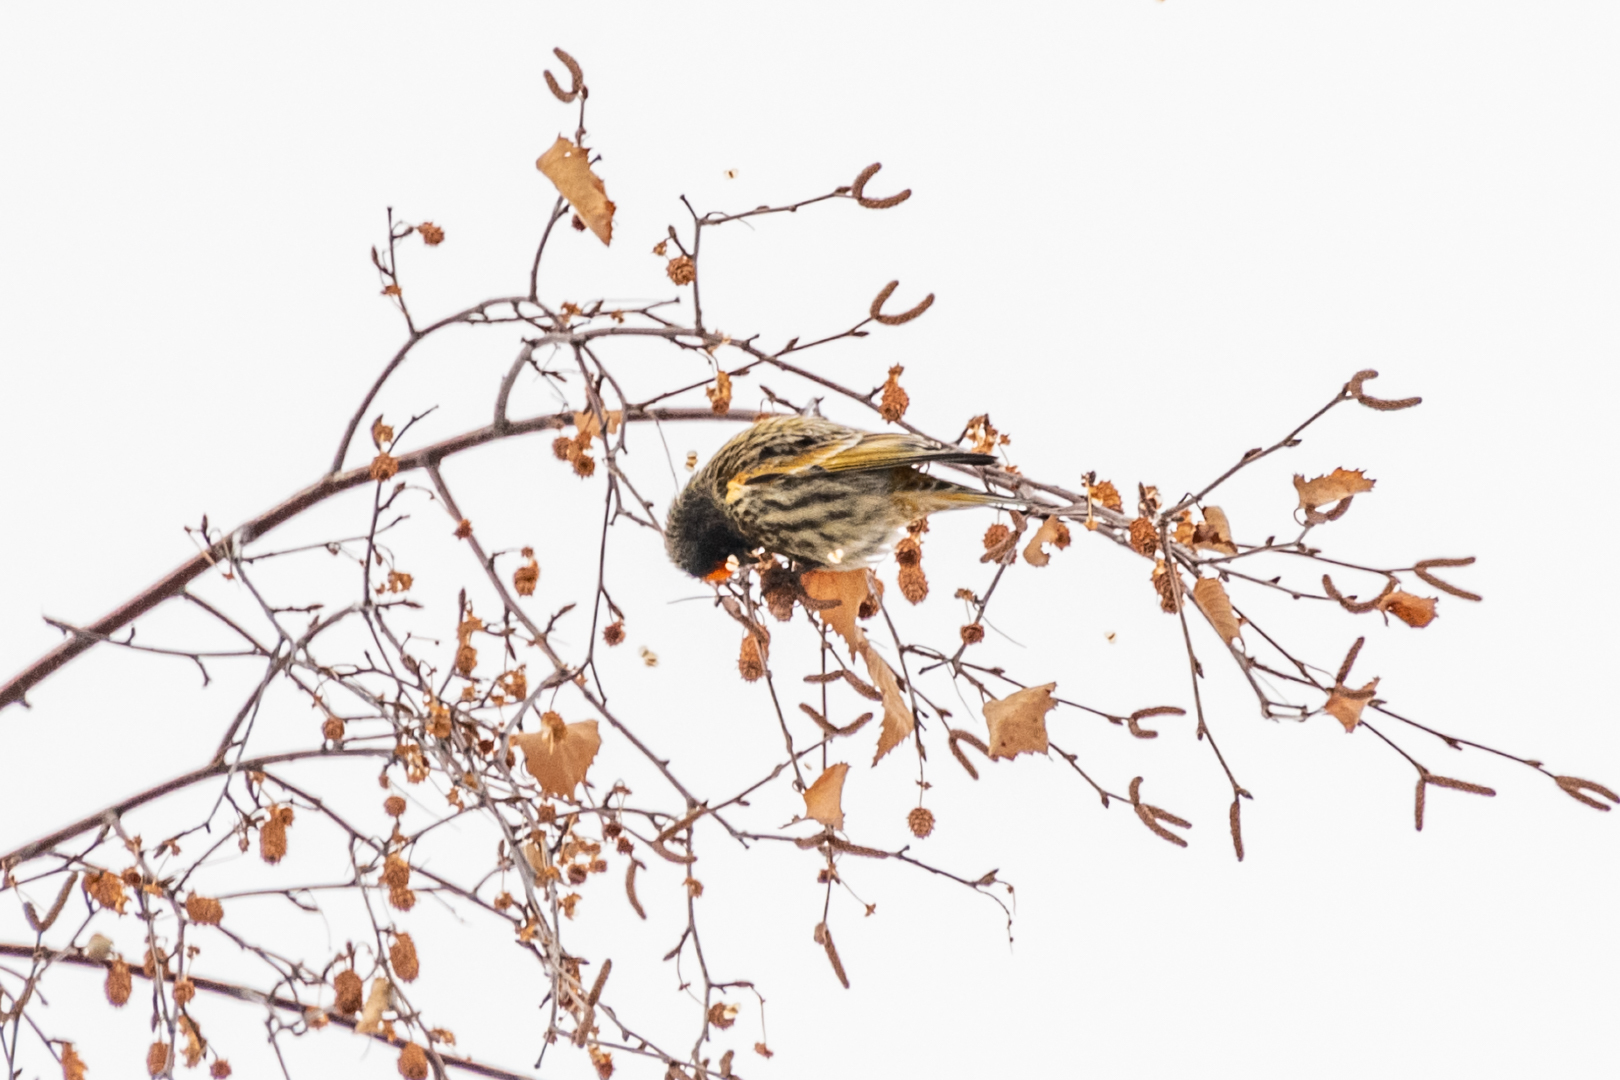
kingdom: Animalia
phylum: Chordata
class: Aves
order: Passeriformes
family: Fringillidae
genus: Serinus
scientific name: Serinus pusillus
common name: Red-fronted serin
